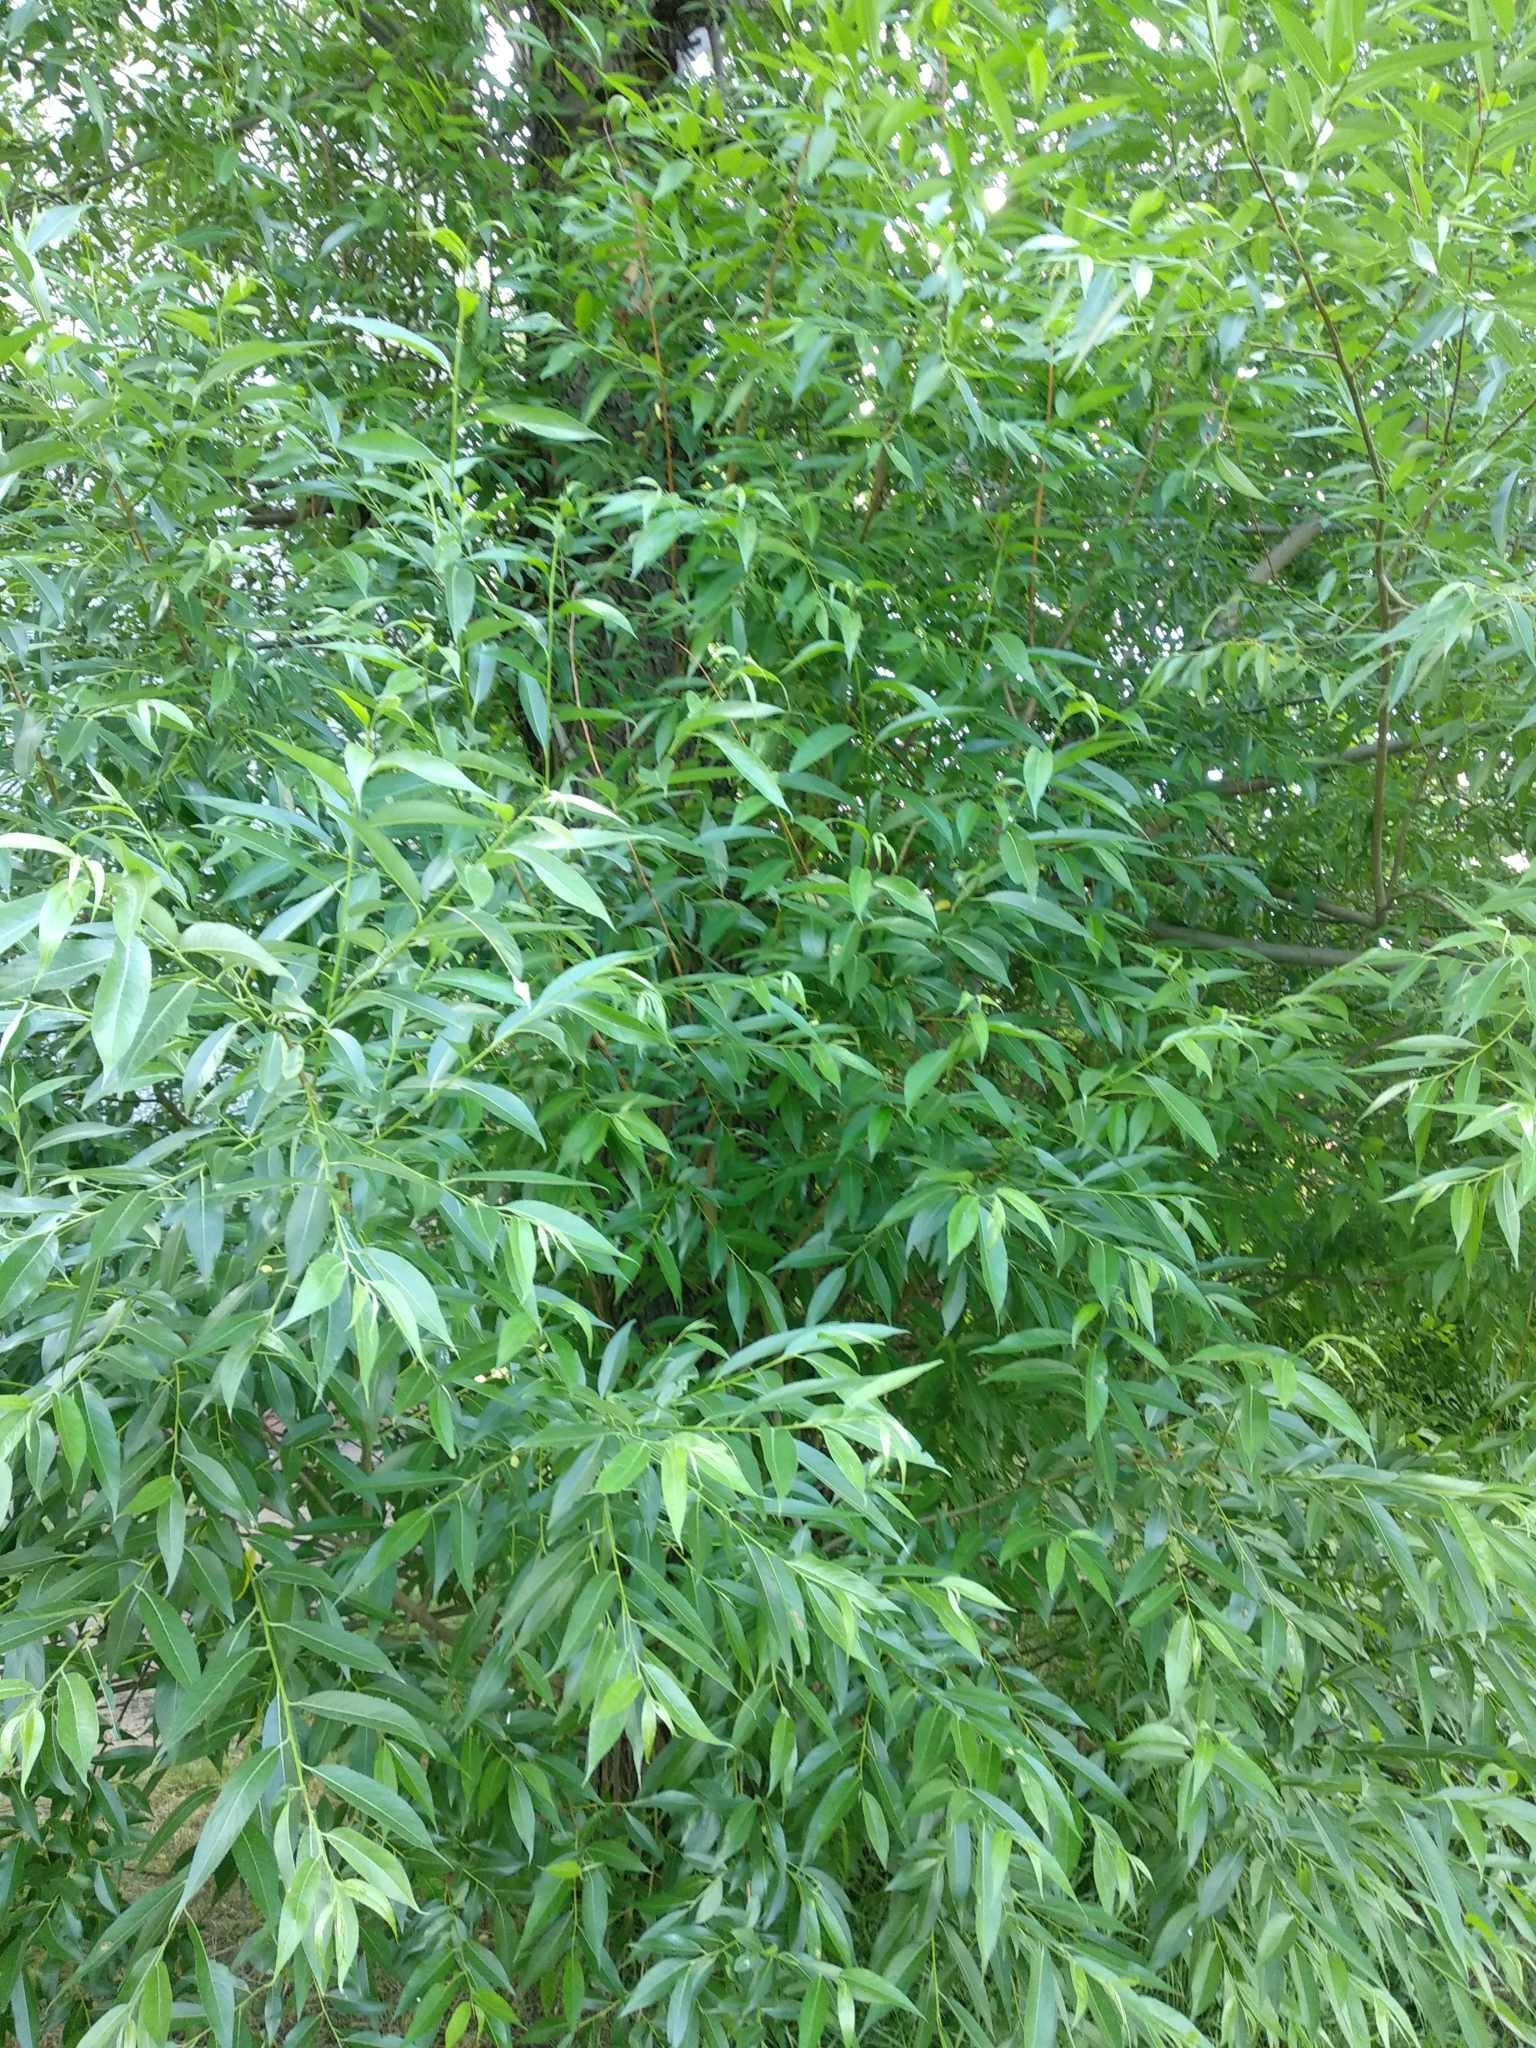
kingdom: Plantae
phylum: Tracheophyta
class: Magnoliopsida
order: Malpighiales
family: Salicaceae
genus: Salix
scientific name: Salix alba
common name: White willow
